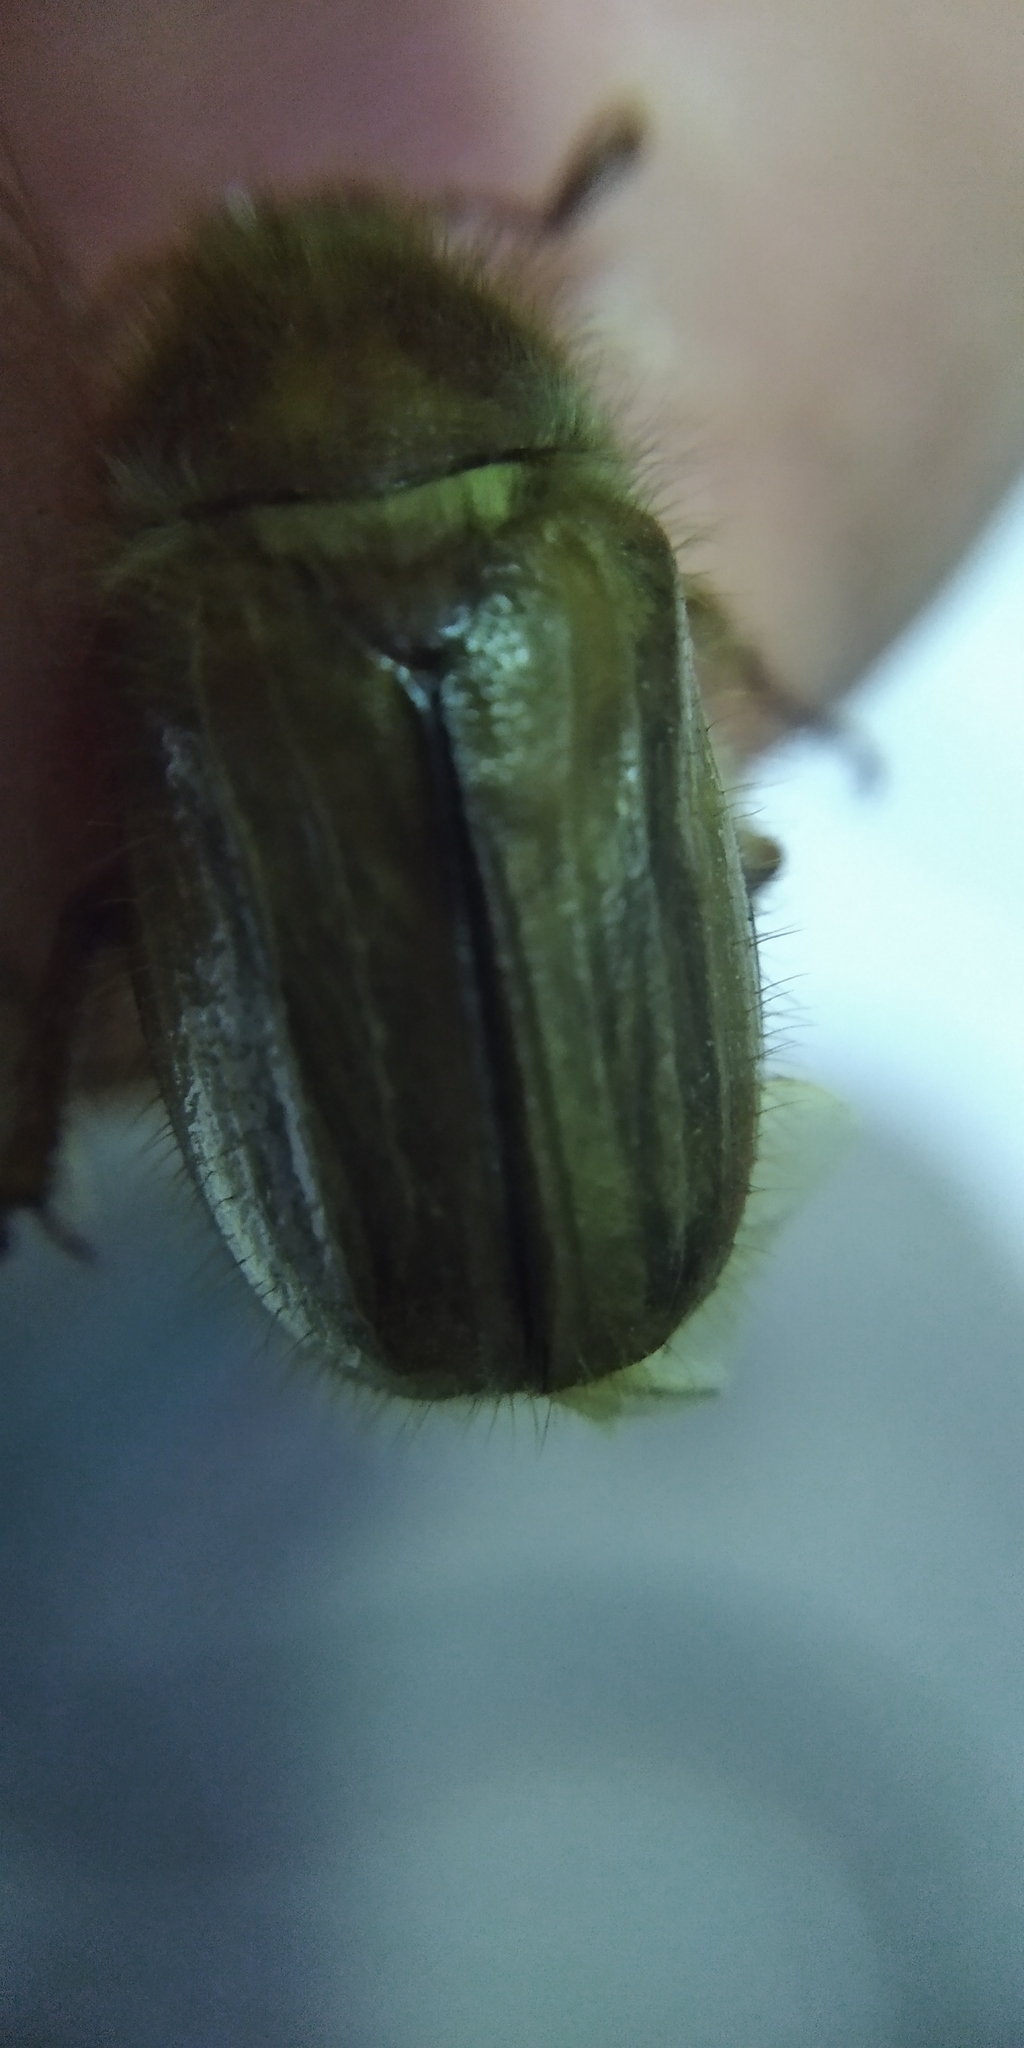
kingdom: Animalia
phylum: Arthropoda
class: Insecta
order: Coleoptera
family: Scarabaeidae
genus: Amphimallon
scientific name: Amphimallon solstitiale
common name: Summer chafer
